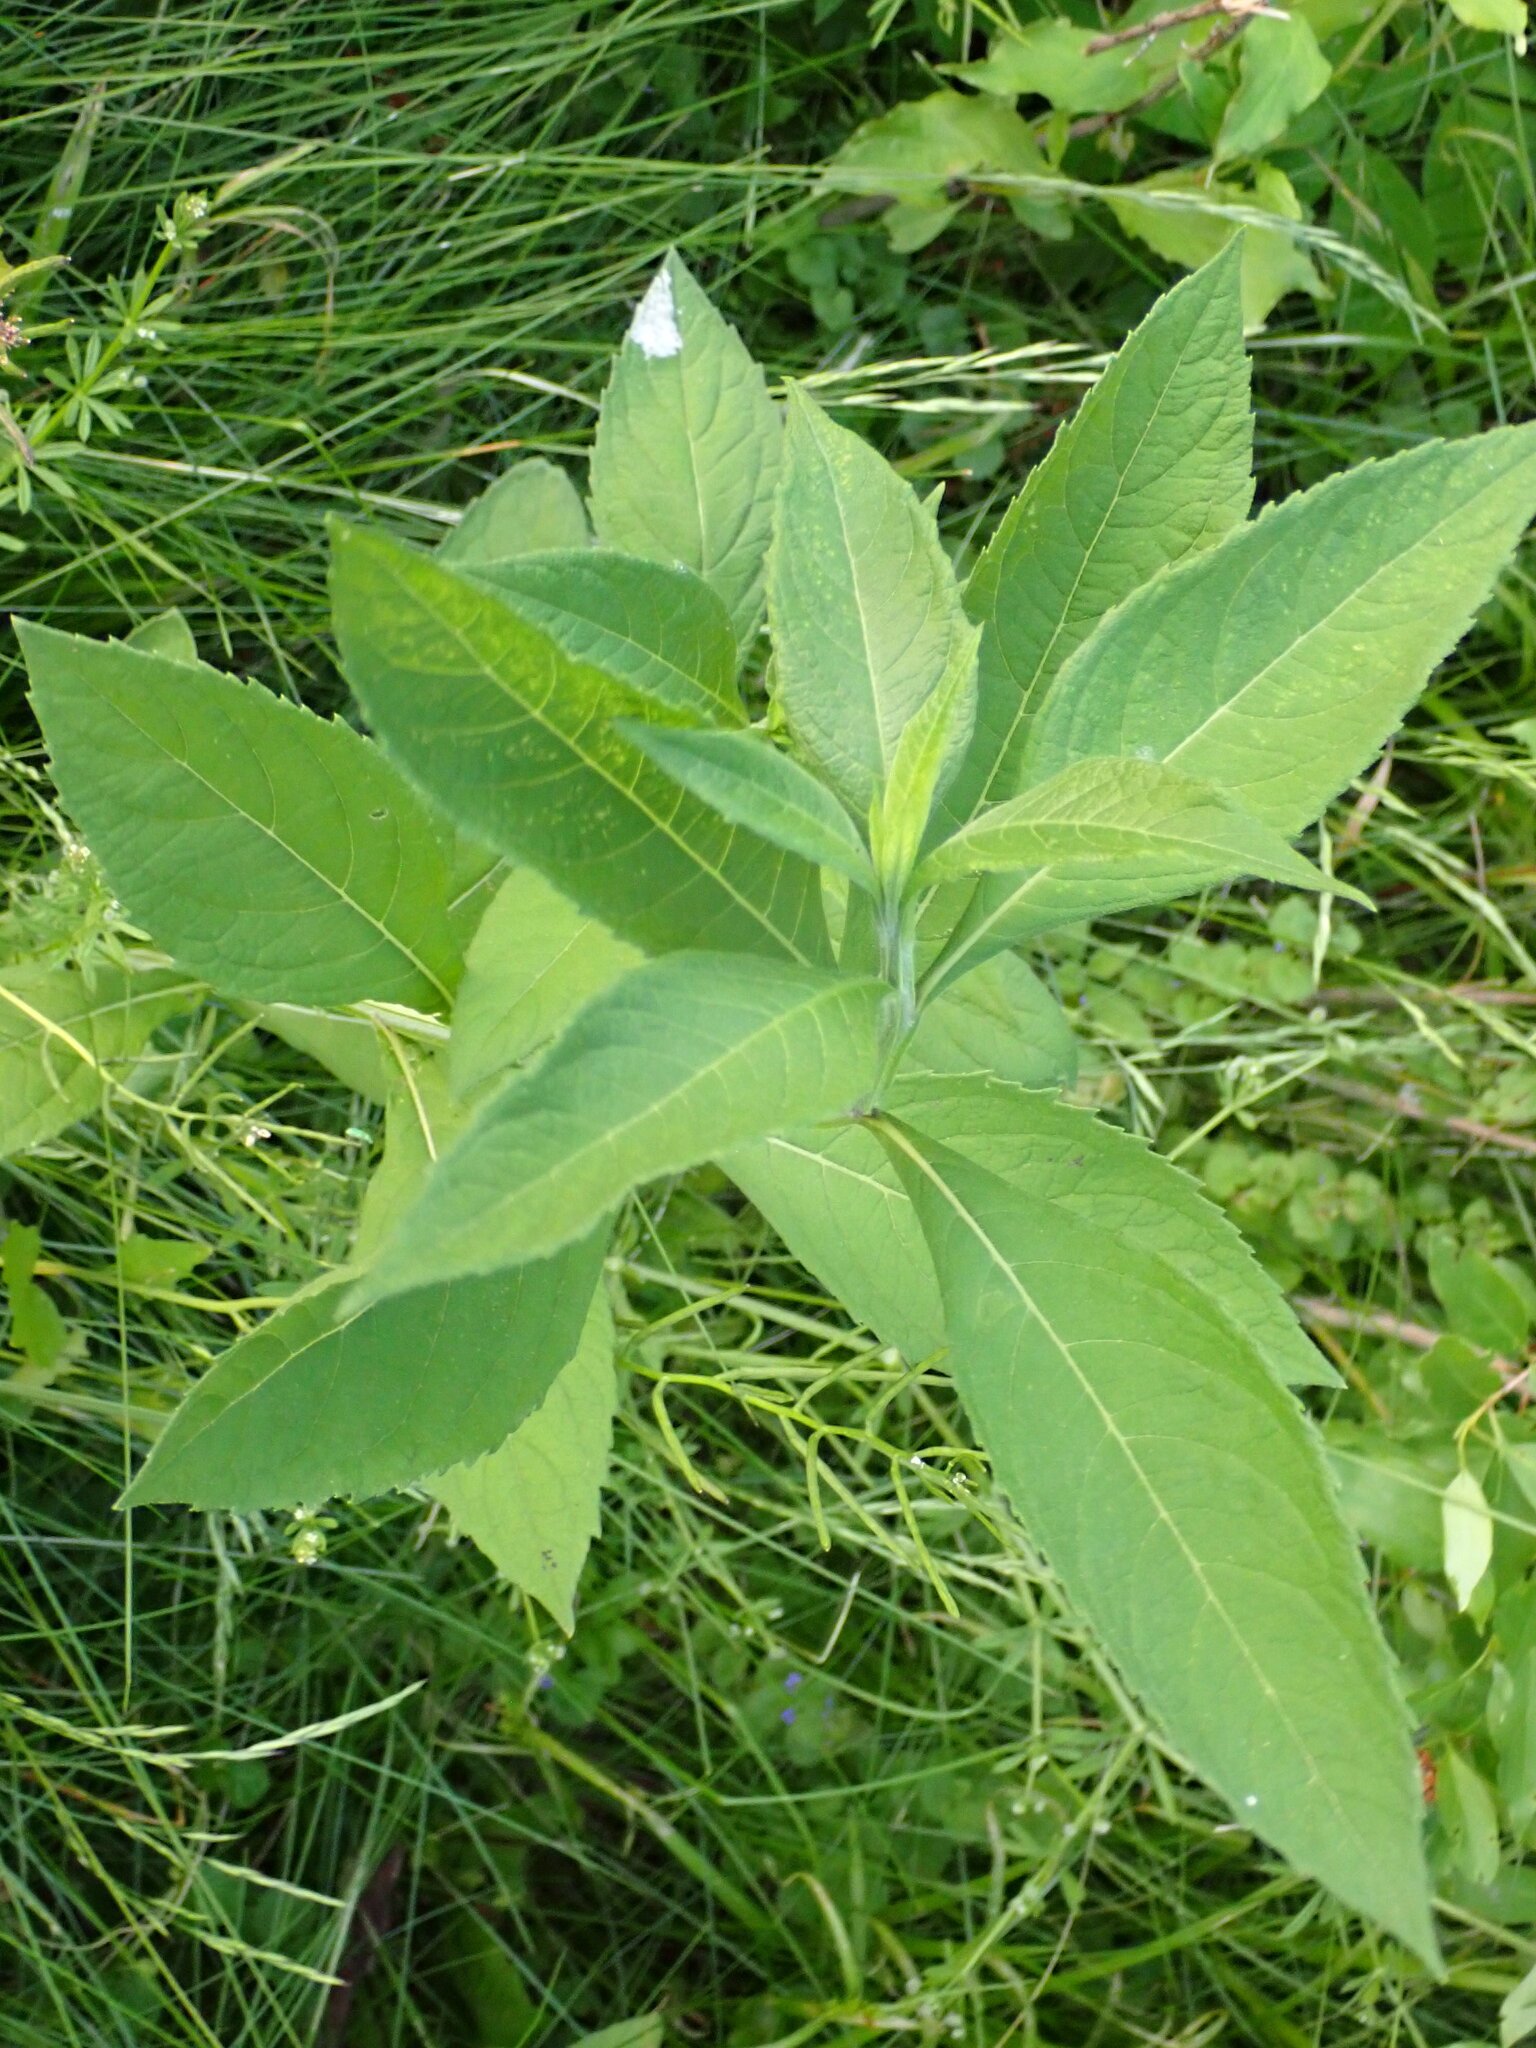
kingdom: Plantae
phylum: Tracheophyta
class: Magnoliopsida
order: Asterales
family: Asteraceae
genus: Verbesina
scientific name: Verbesina alternifolia
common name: Wingstem
